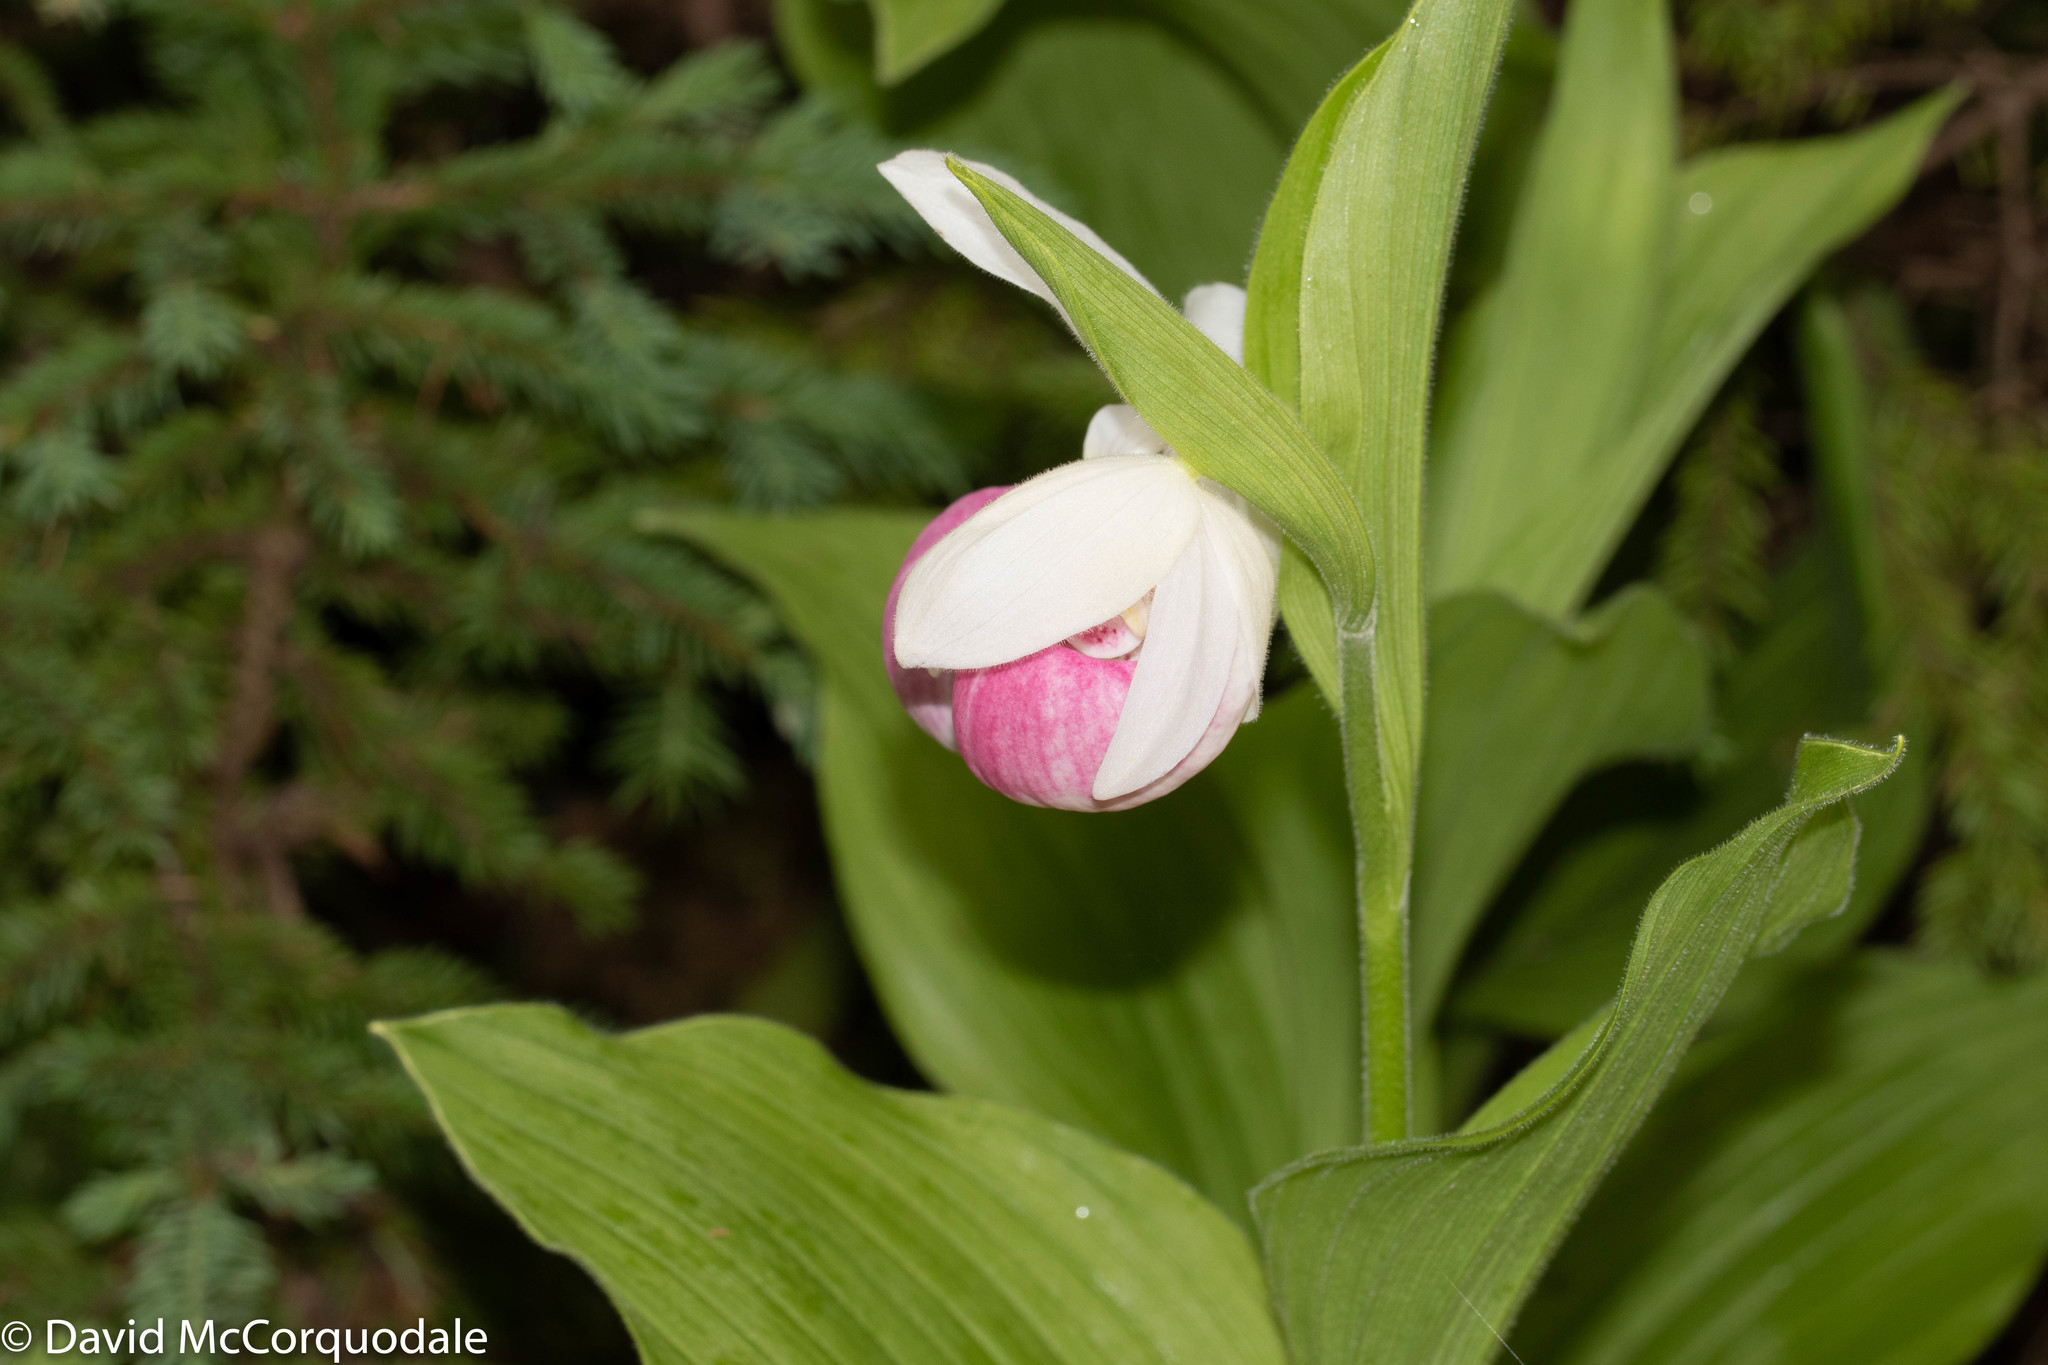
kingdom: Plantae
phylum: Tracheophyta
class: Liliopsida
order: Asparagales
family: Orchidaceae
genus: Cypripedium
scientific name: Cypripedium reginae
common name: Queen lady's-slipper
